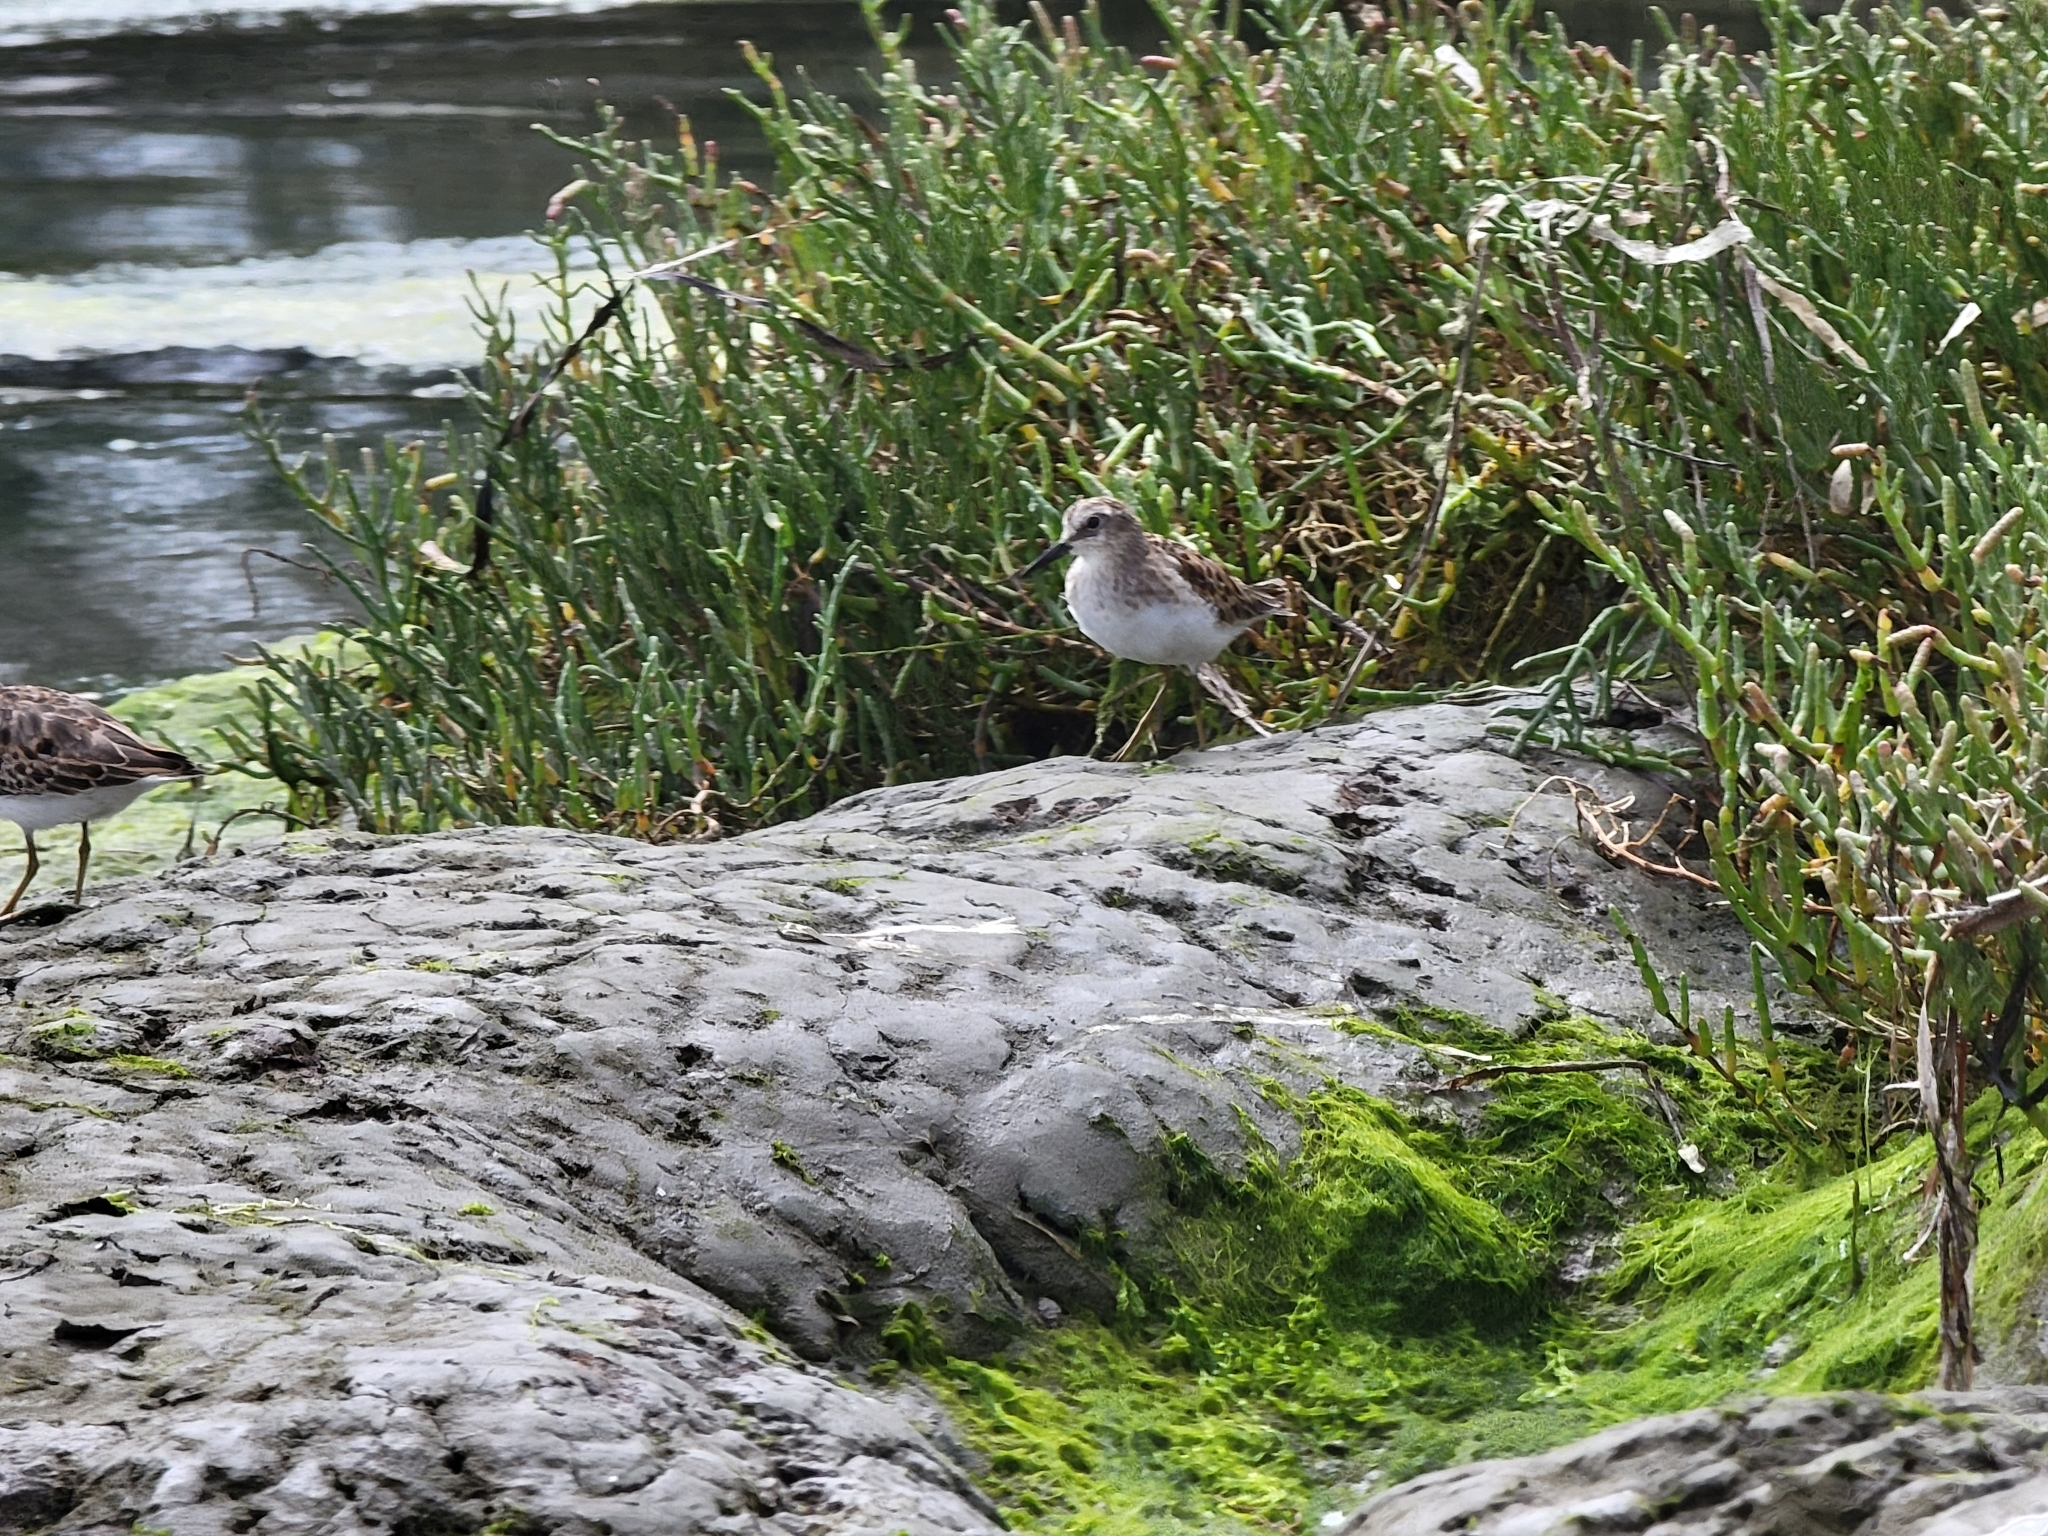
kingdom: Animalia
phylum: Chordata
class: Aves
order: Charadriiformes
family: Scolopacidae
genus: Calidris
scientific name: Calidris minutilla
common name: Least sandpiper
